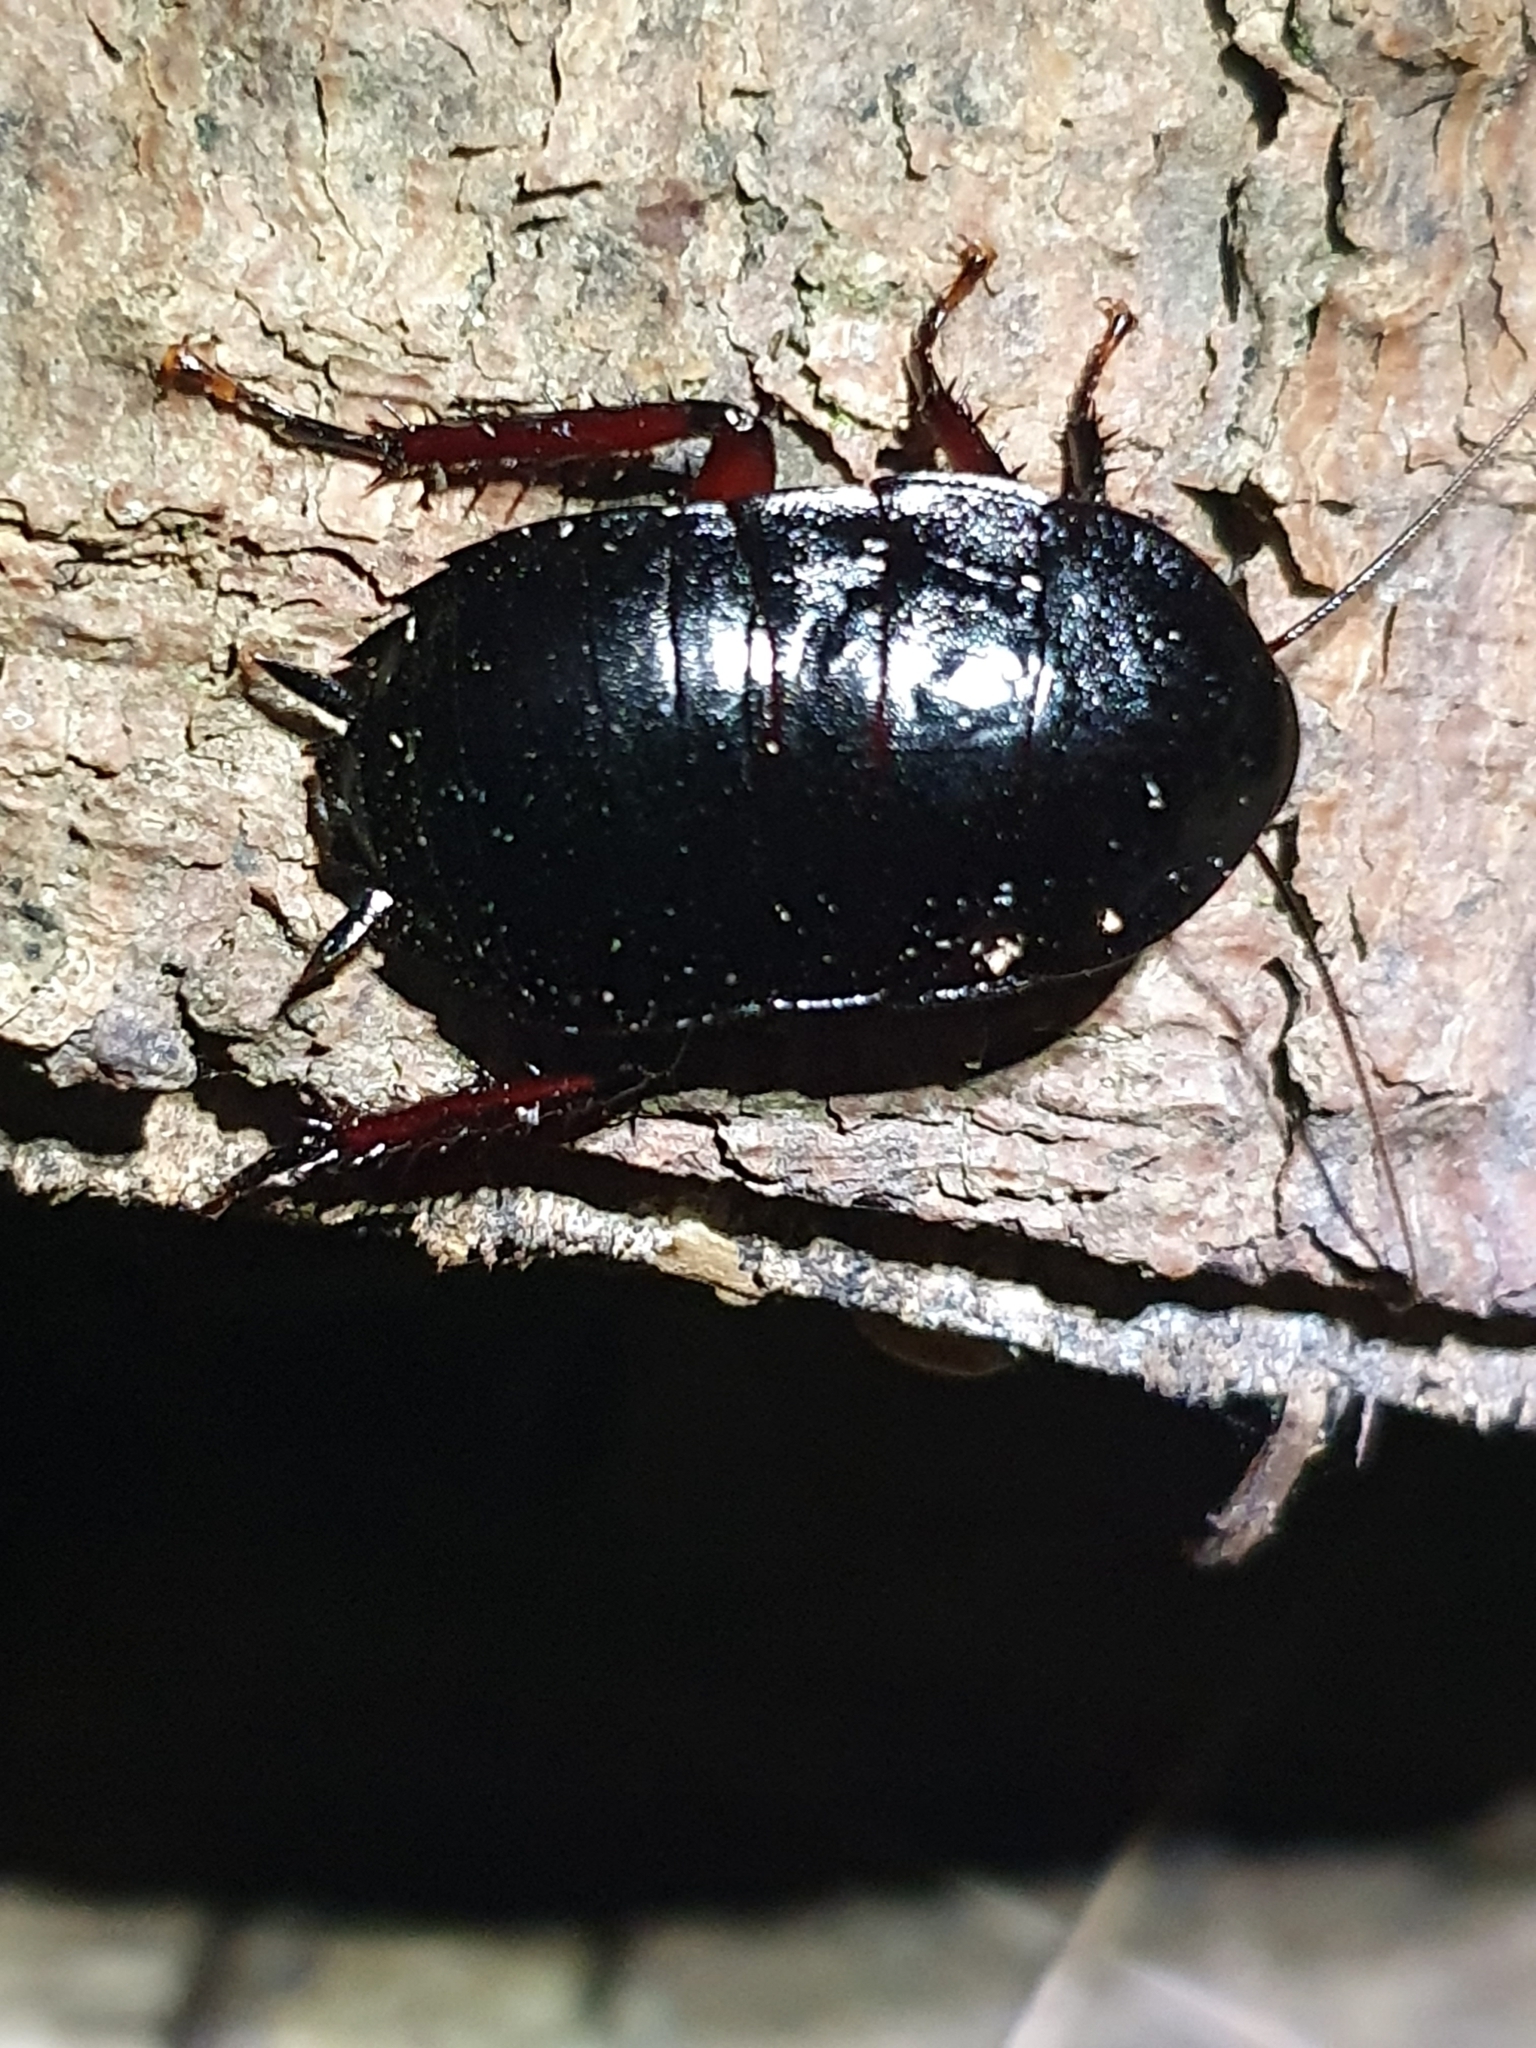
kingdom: Animalia
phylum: Arthropoda
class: Insecta
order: Blattodea
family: Blattidae
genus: Maoriblatta
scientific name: Maoriblatta novaeseelandiae
